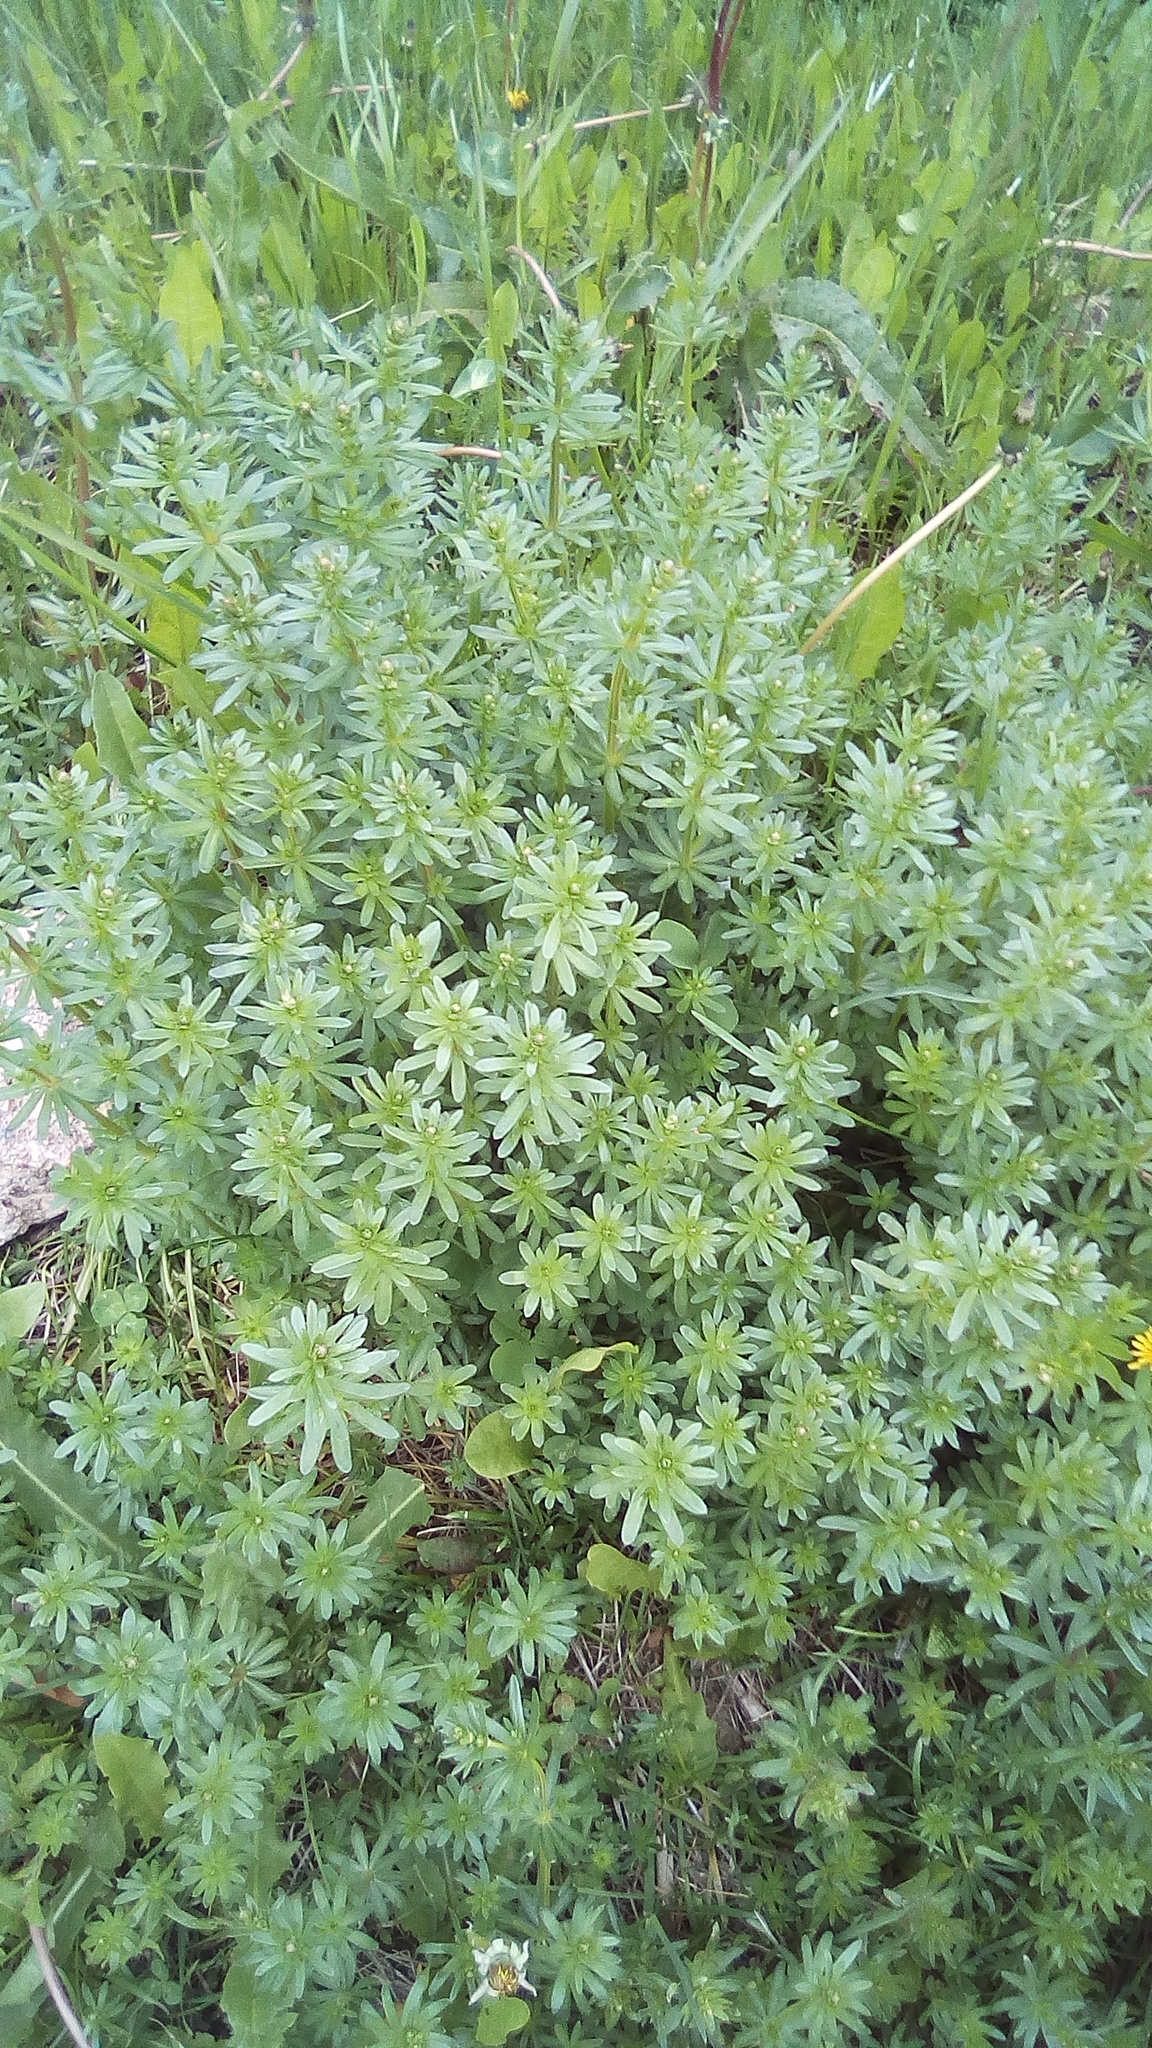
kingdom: Plantae
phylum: Tracheophyta
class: Magnoliopsida
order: Gentianales
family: Rubiaceae
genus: Galium
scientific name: Galium mollugo
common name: Hedge bedstraw
